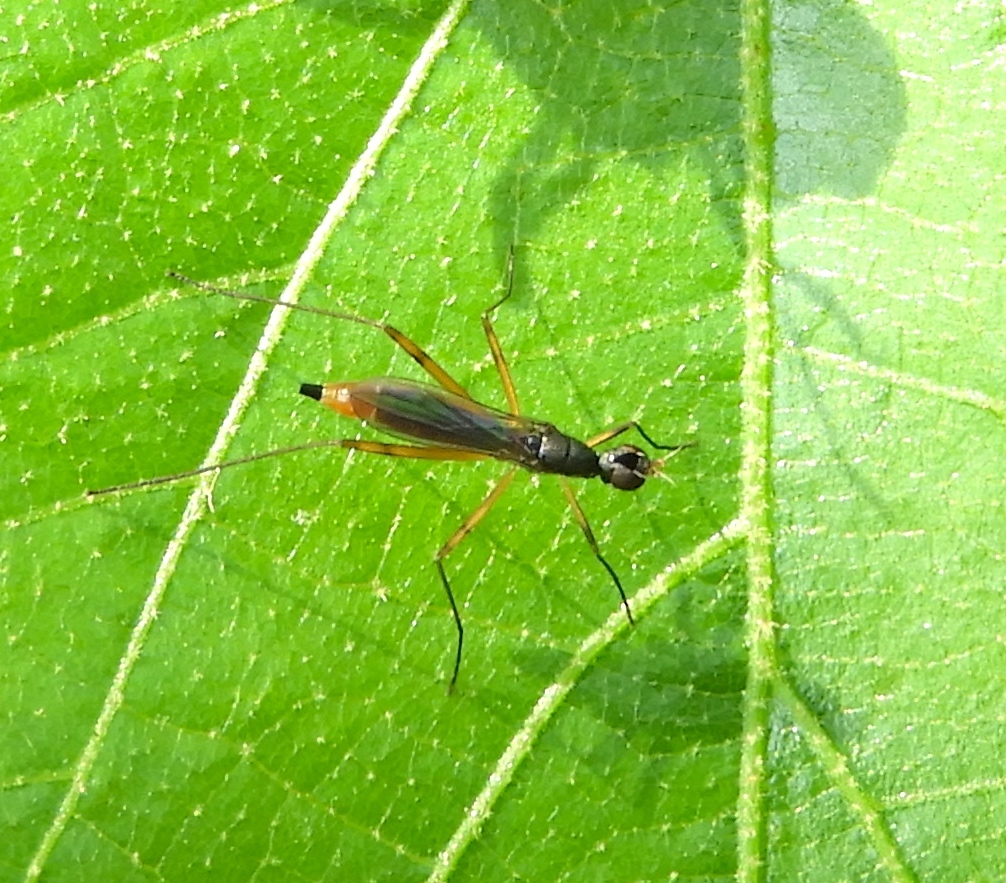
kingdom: Animalia
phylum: Arthropoda
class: Insecta
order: Diptera
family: Micropezidae
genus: Micropeza
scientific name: Micropeza
